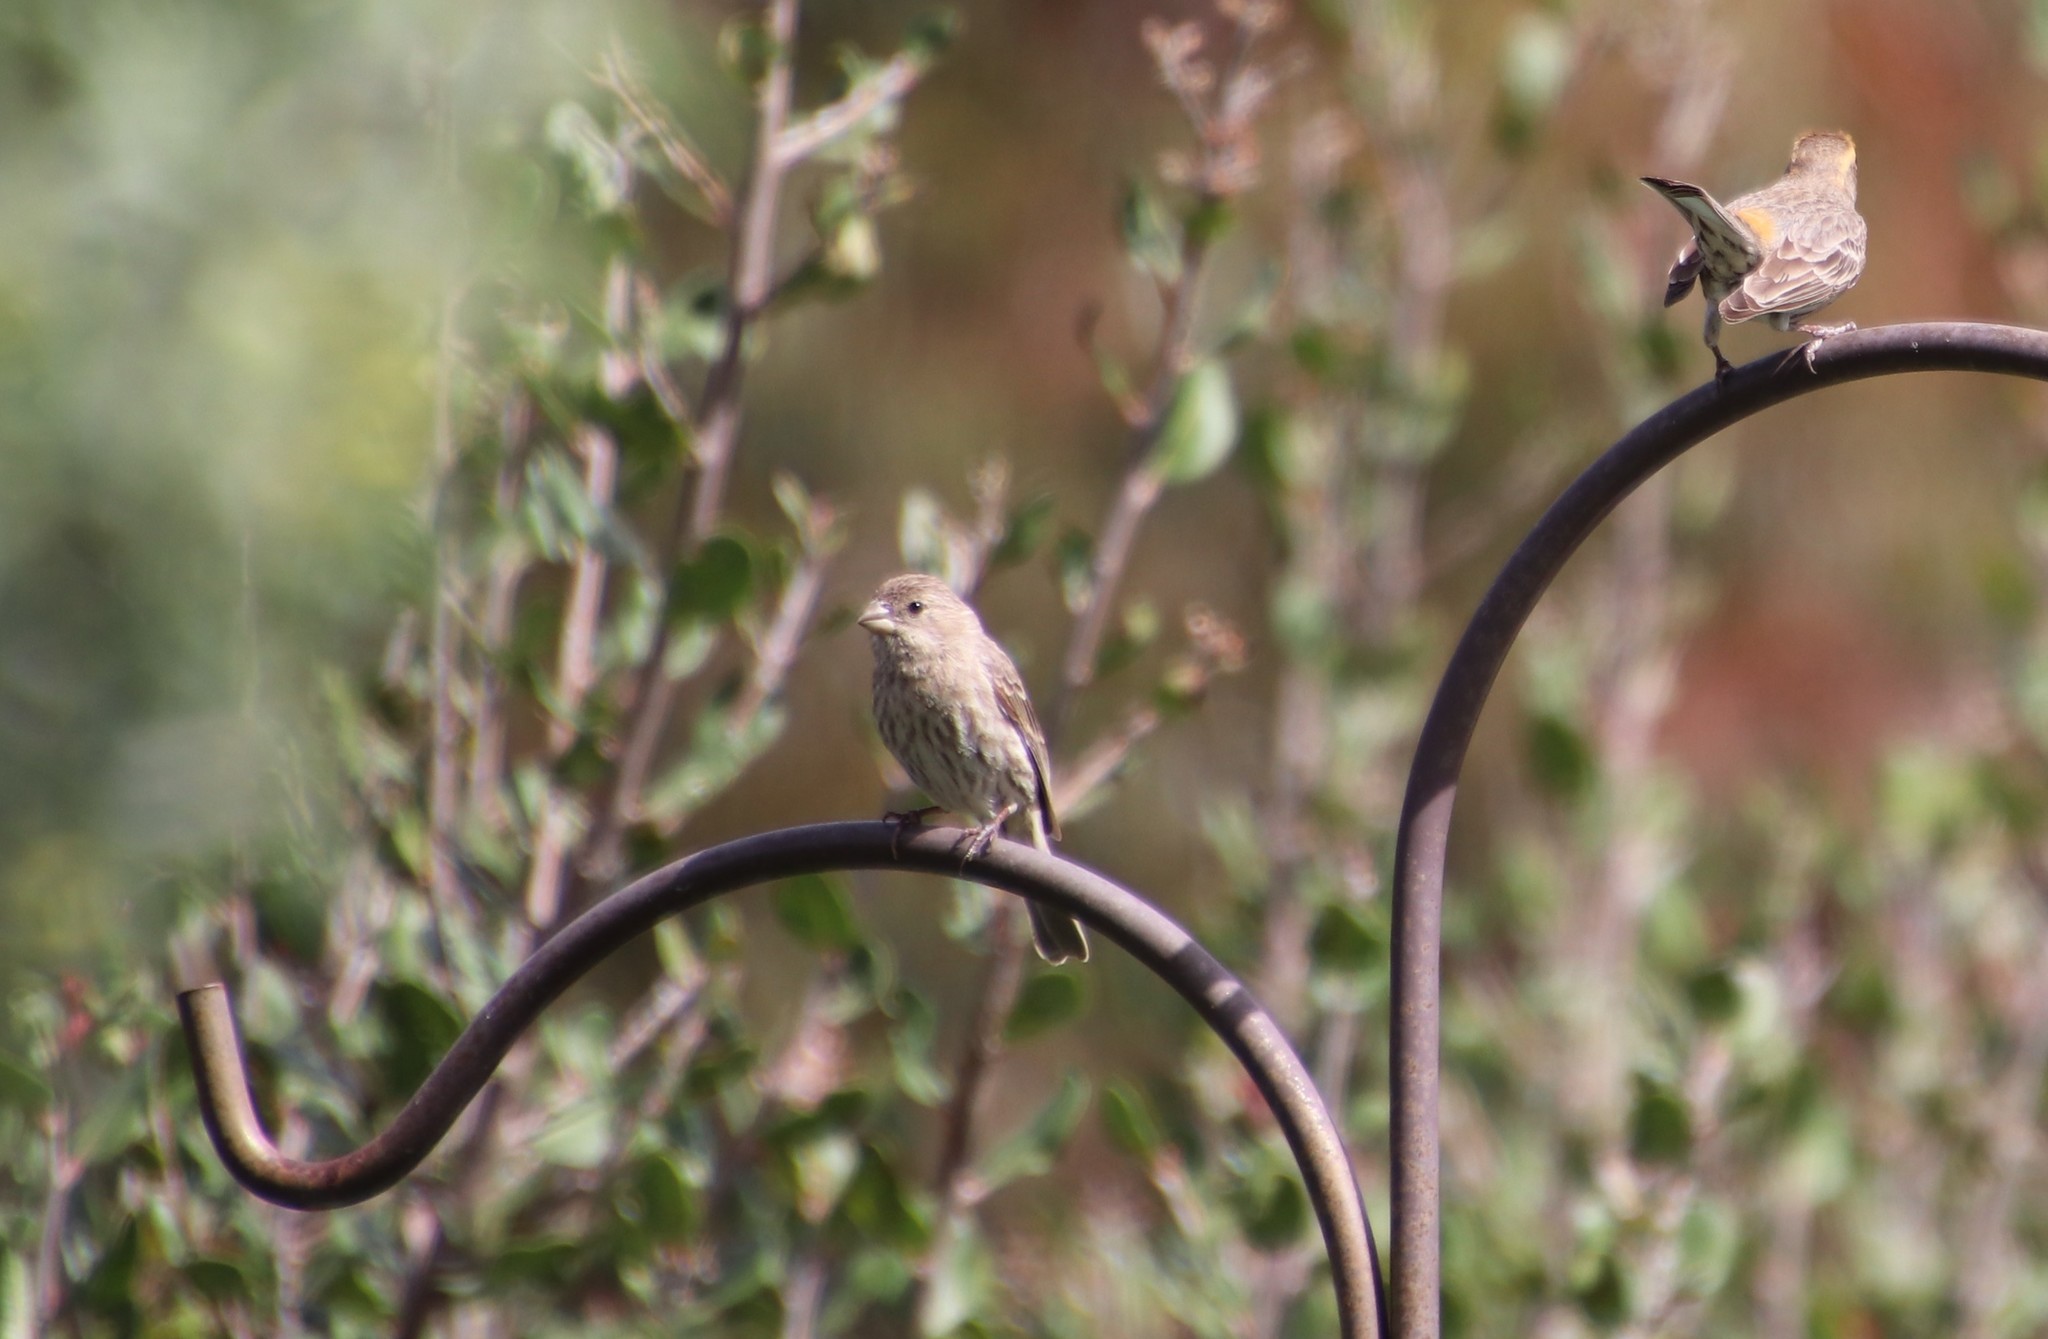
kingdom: Animalia
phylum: Chordata
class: Aves
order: Passeriformes
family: Fringillidae
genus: Haemorhous
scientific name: Haemorhous mexicanus
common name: House finch
